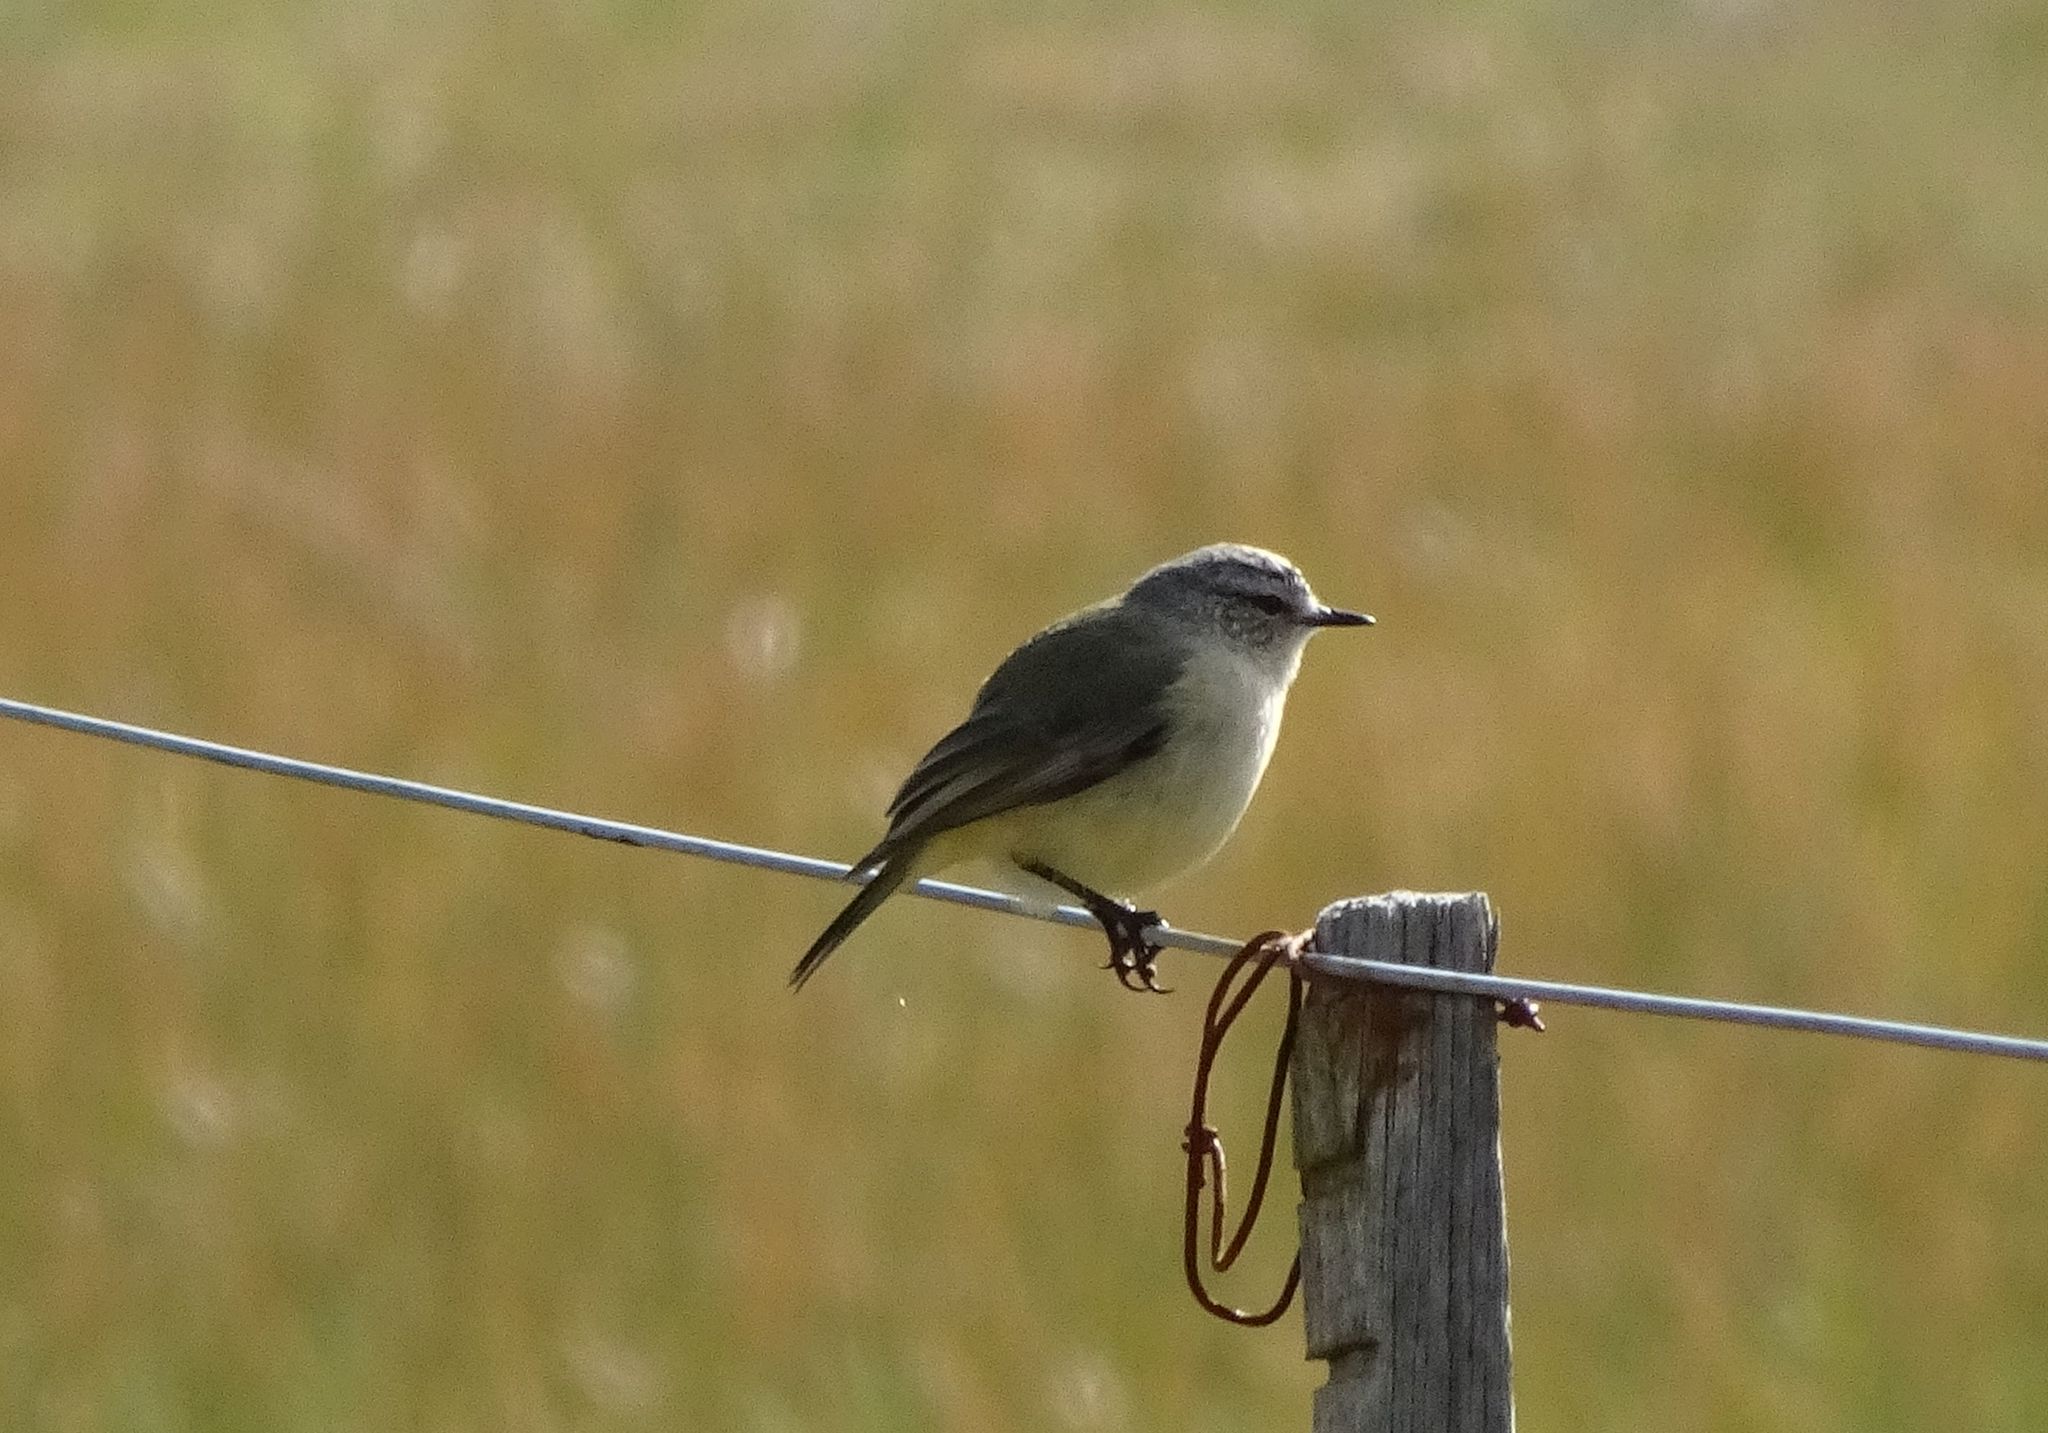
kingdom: Animalia
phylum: Chordata
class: Aves
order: Passeriformes
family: Acanthizidae
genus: Acanthiza
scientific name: Acanthiza chrysorrhoa
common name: Yellow-rumped thornbill
